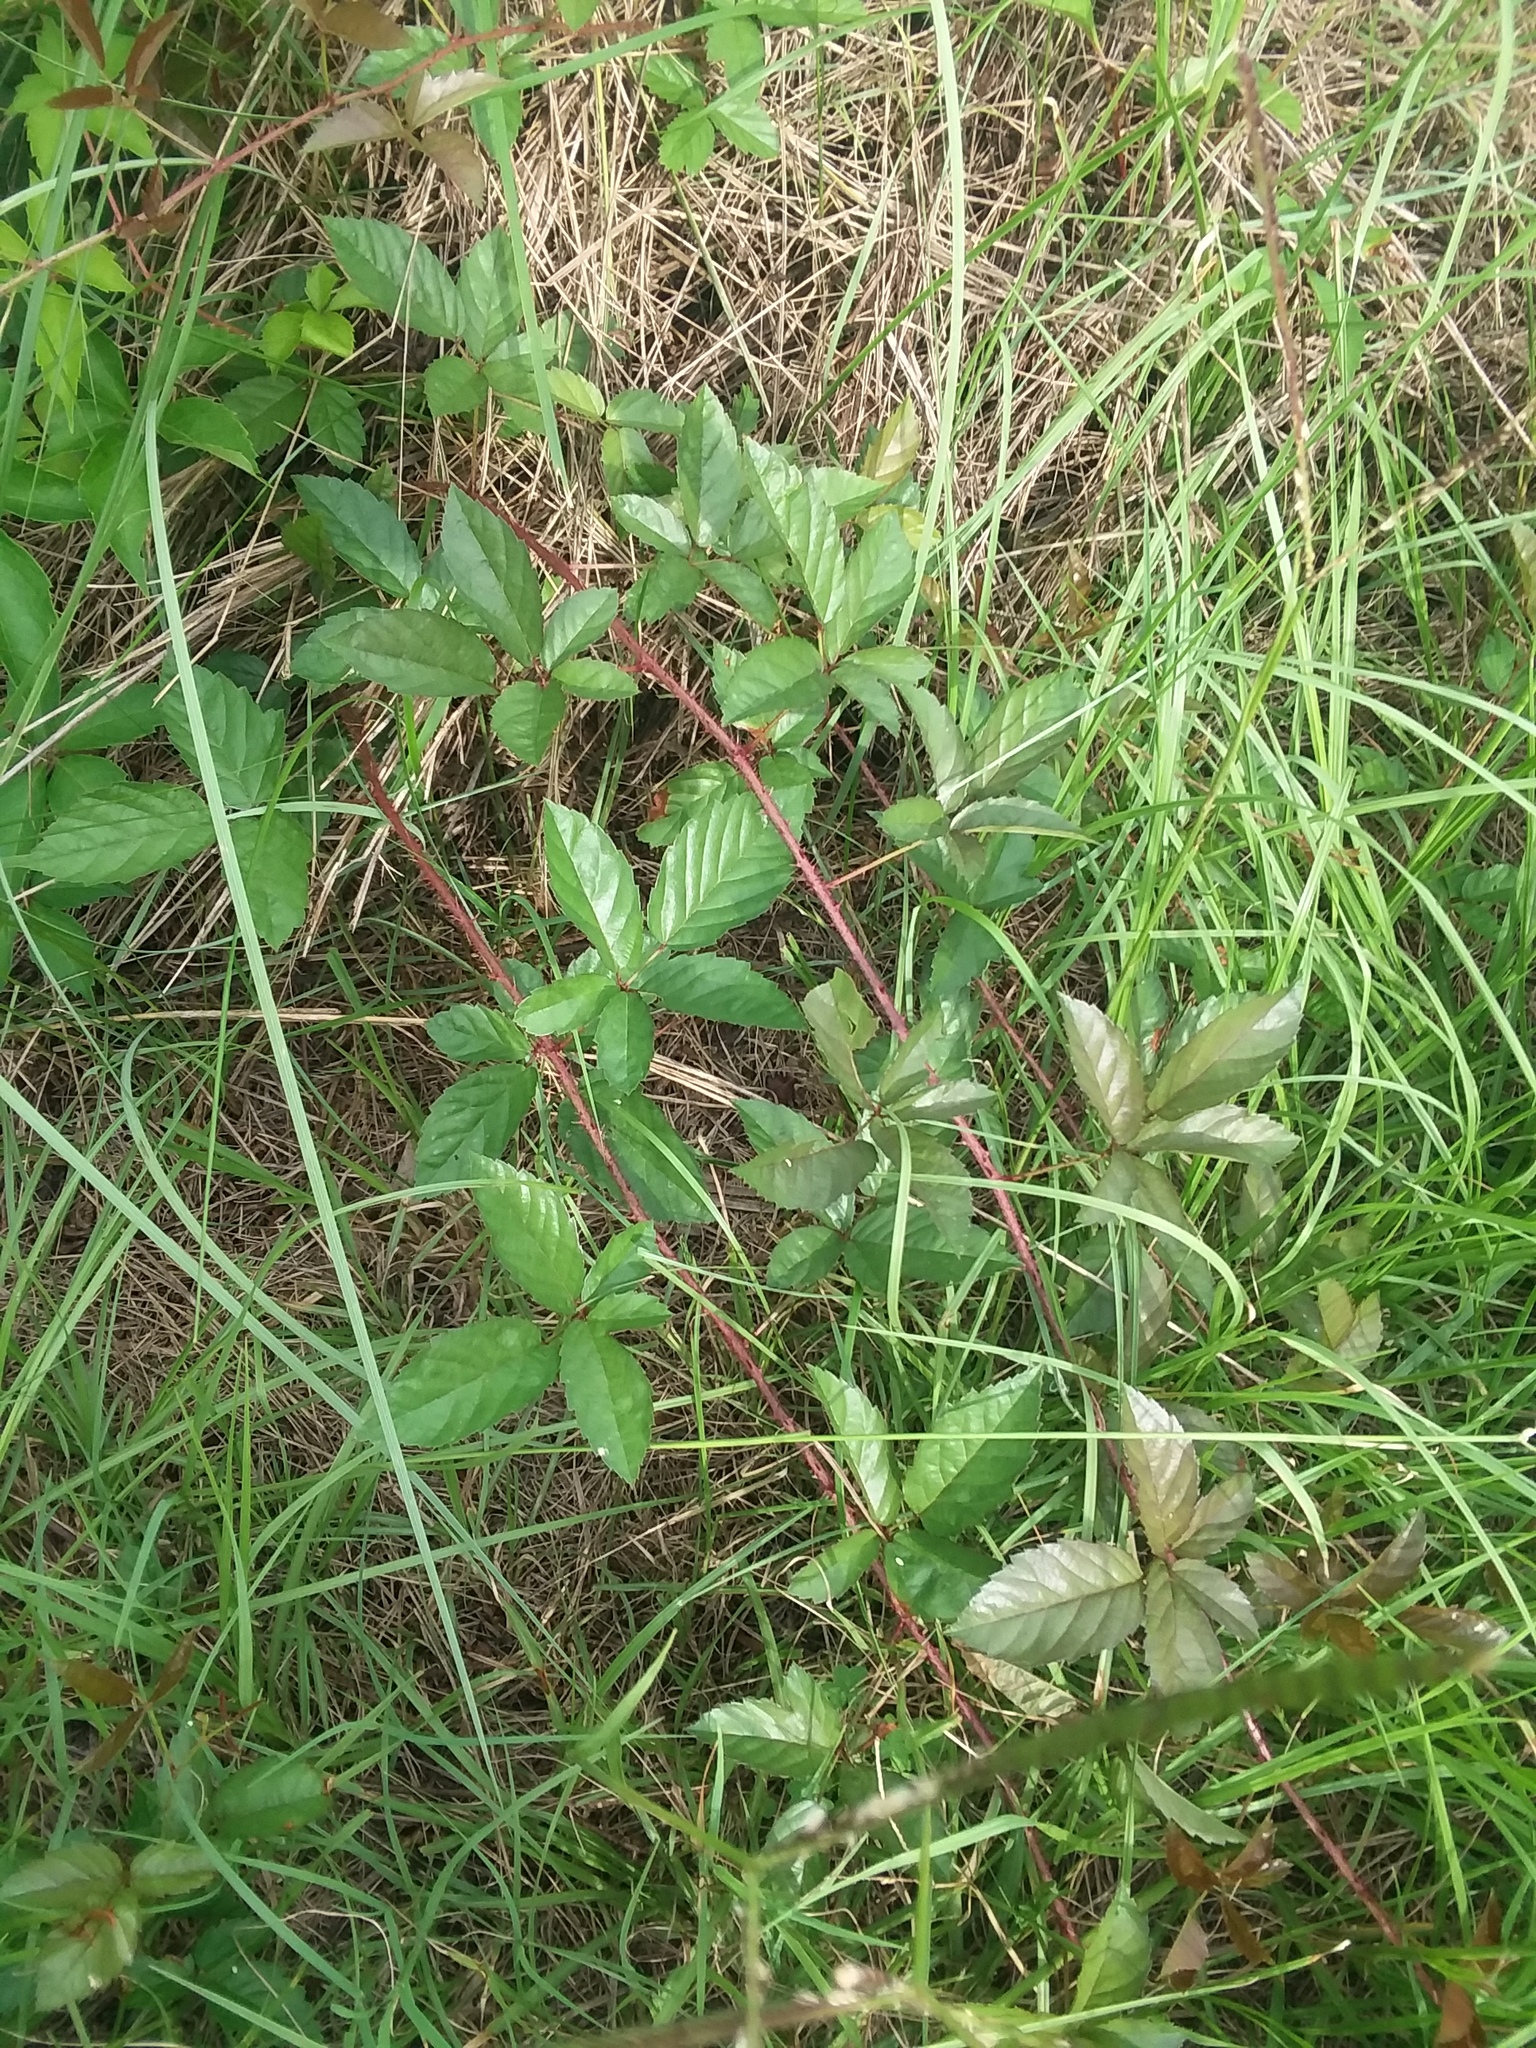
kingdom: Plantae
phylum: Tracheophyta
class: Magnoliopsida
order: Rosales
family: Rosaceae
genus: Rubus
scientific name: Rubus trivialis
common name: Southern dewberry
